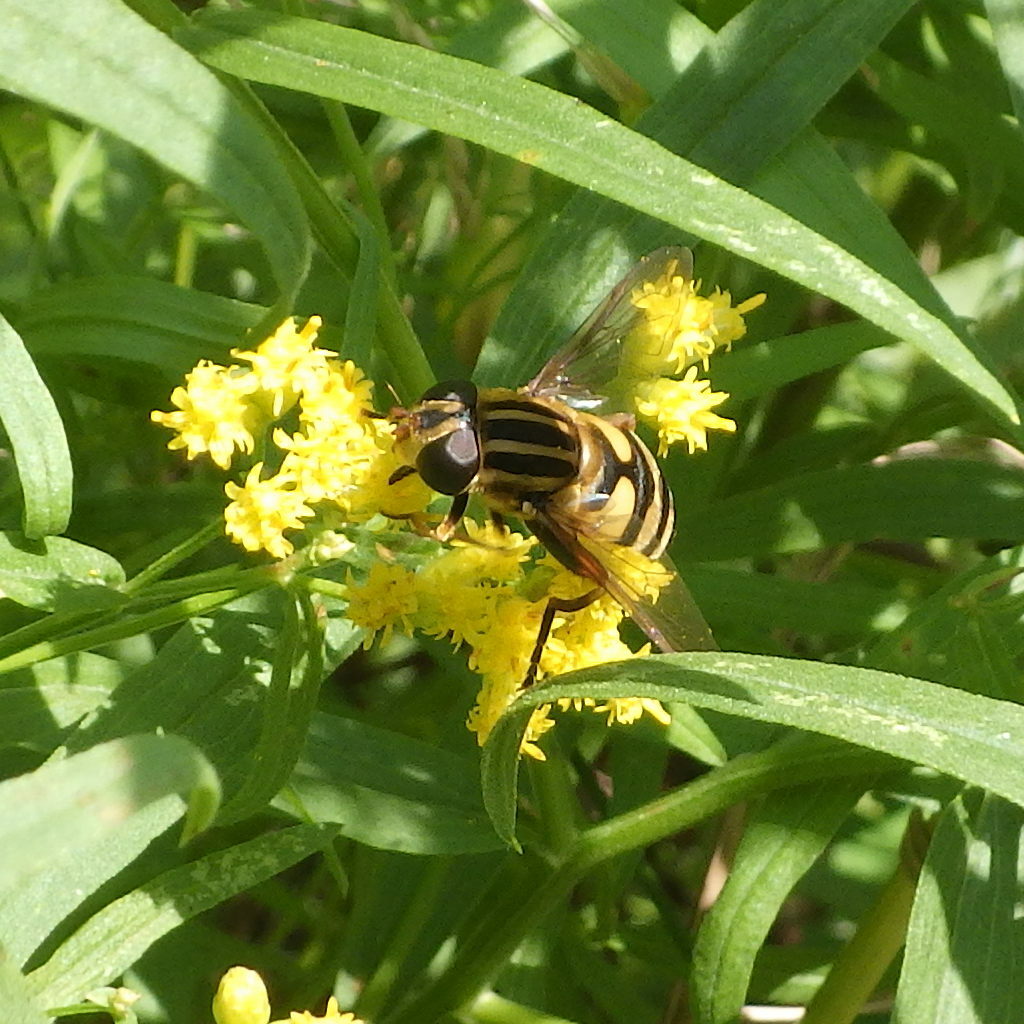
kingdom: Animalia
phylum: Arthropoda
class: Insecta
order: Diptera
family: Syrphidae
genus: Helophilus
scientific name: Helophilus fasciatus
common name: Narrow-headed marsh fly
